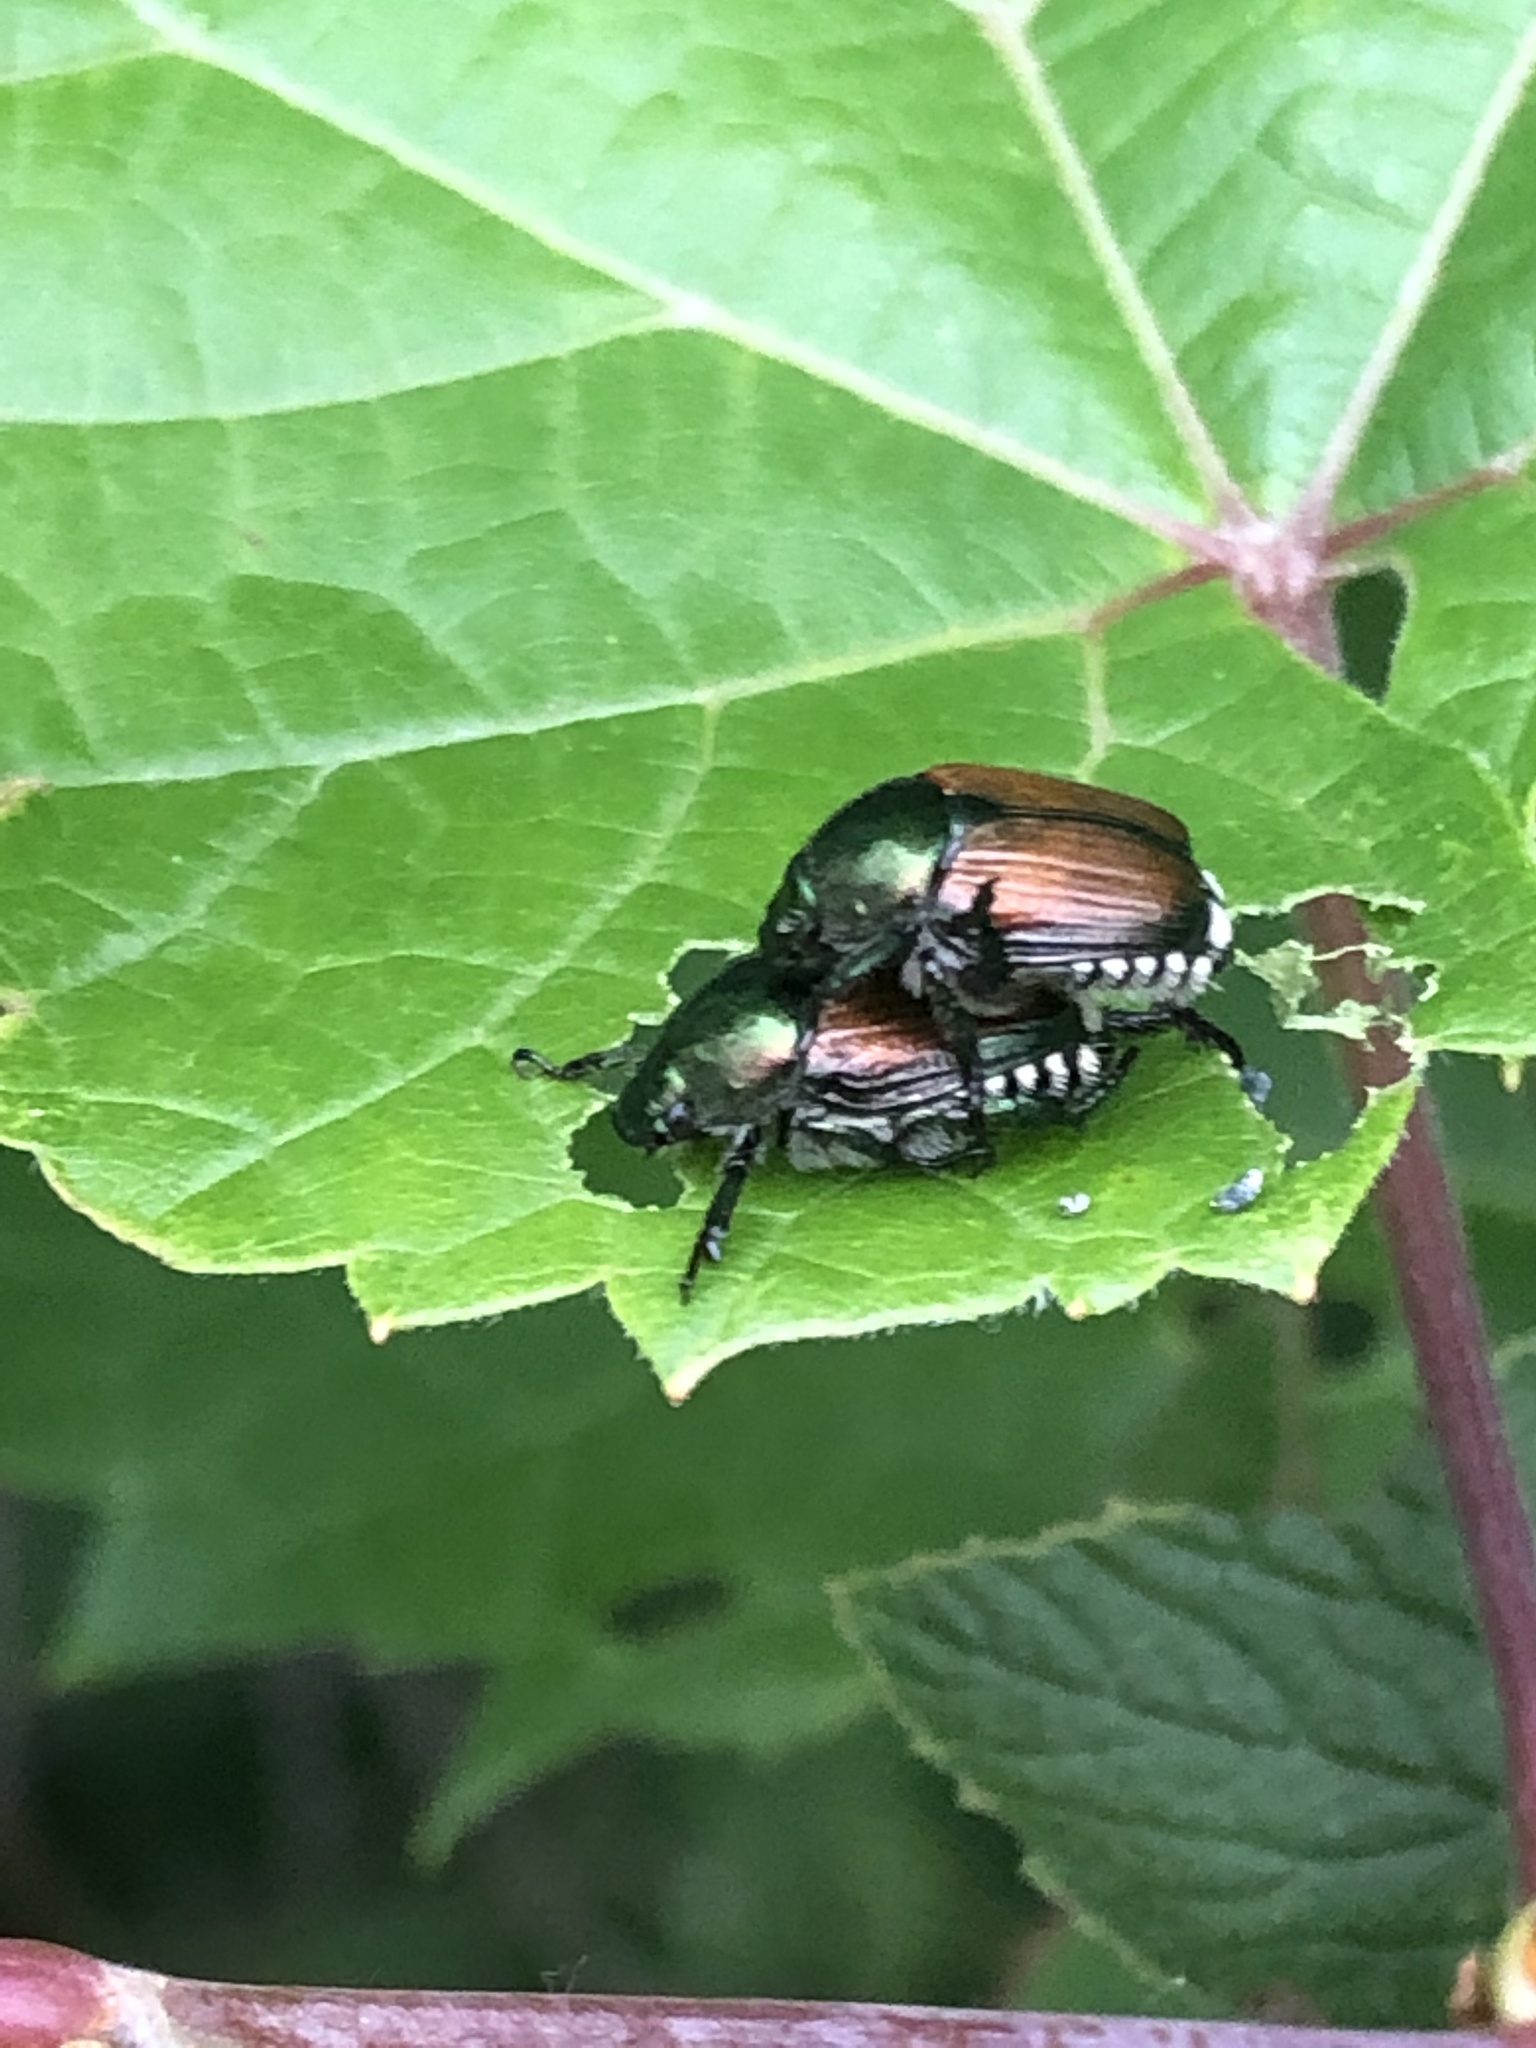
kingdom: Animalia
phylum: Arthropoda
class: Insecta
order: Coleoptera
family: Scarabaeidae
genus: Popillia
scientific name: Popillia japonica
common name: Japanese beetle
